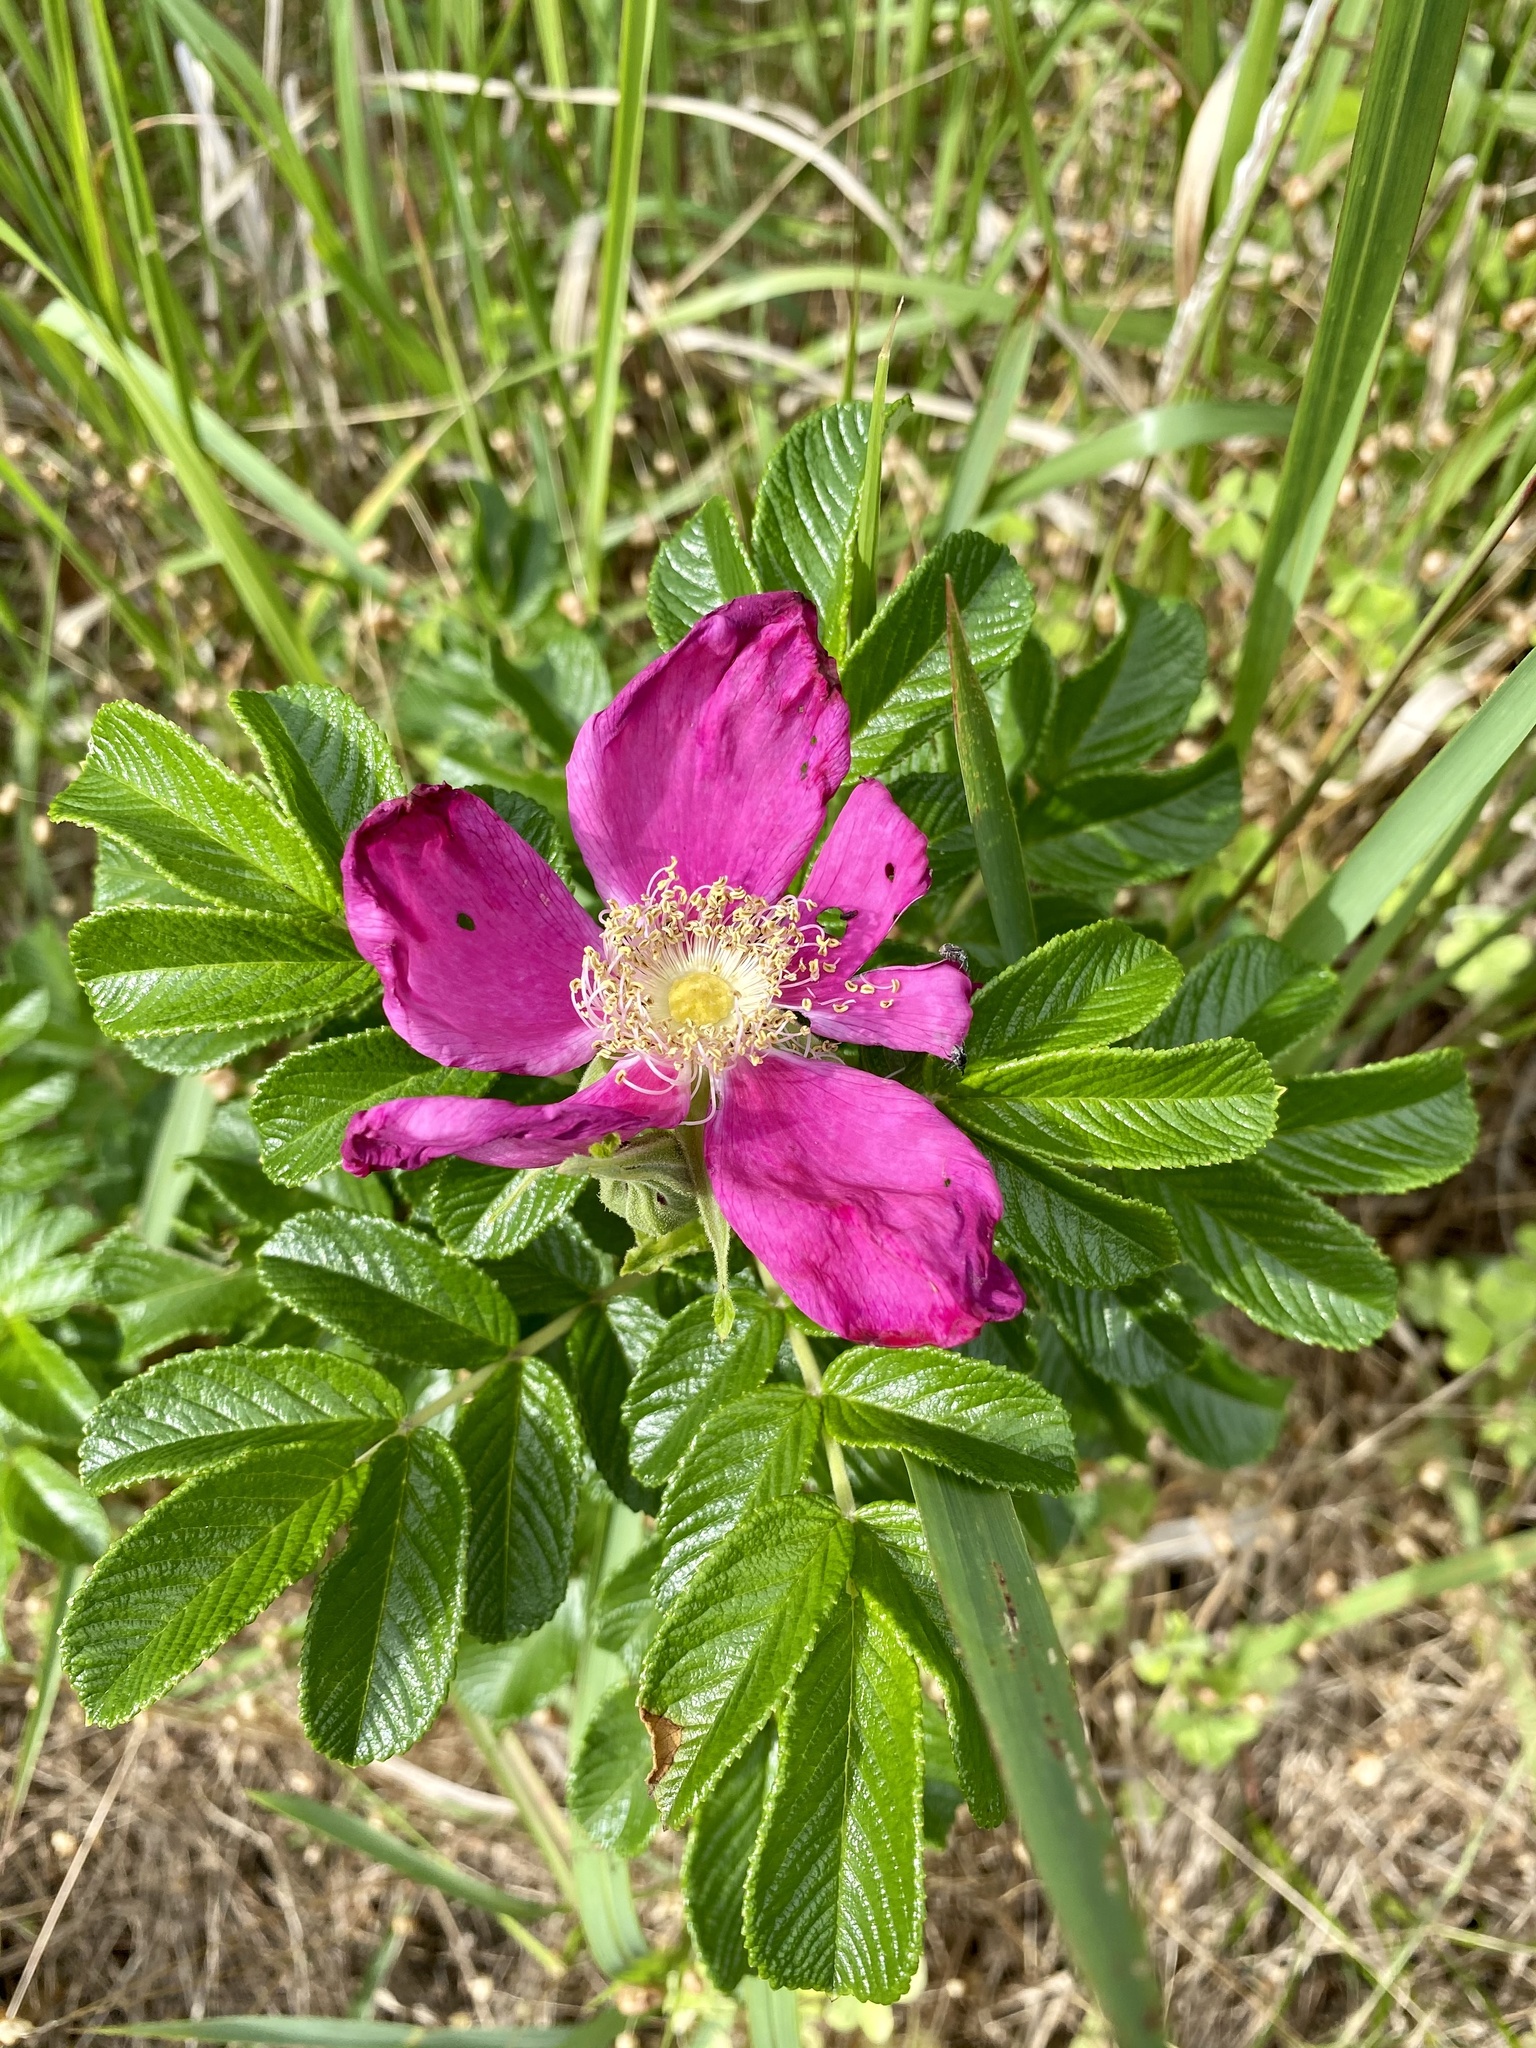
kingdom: Plantae
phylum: Tracheophyta
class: Magnoliopsida
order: Rosales
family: Rosaceae
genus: Rosa
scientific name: Rosa rugosa
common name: Japanese rose
